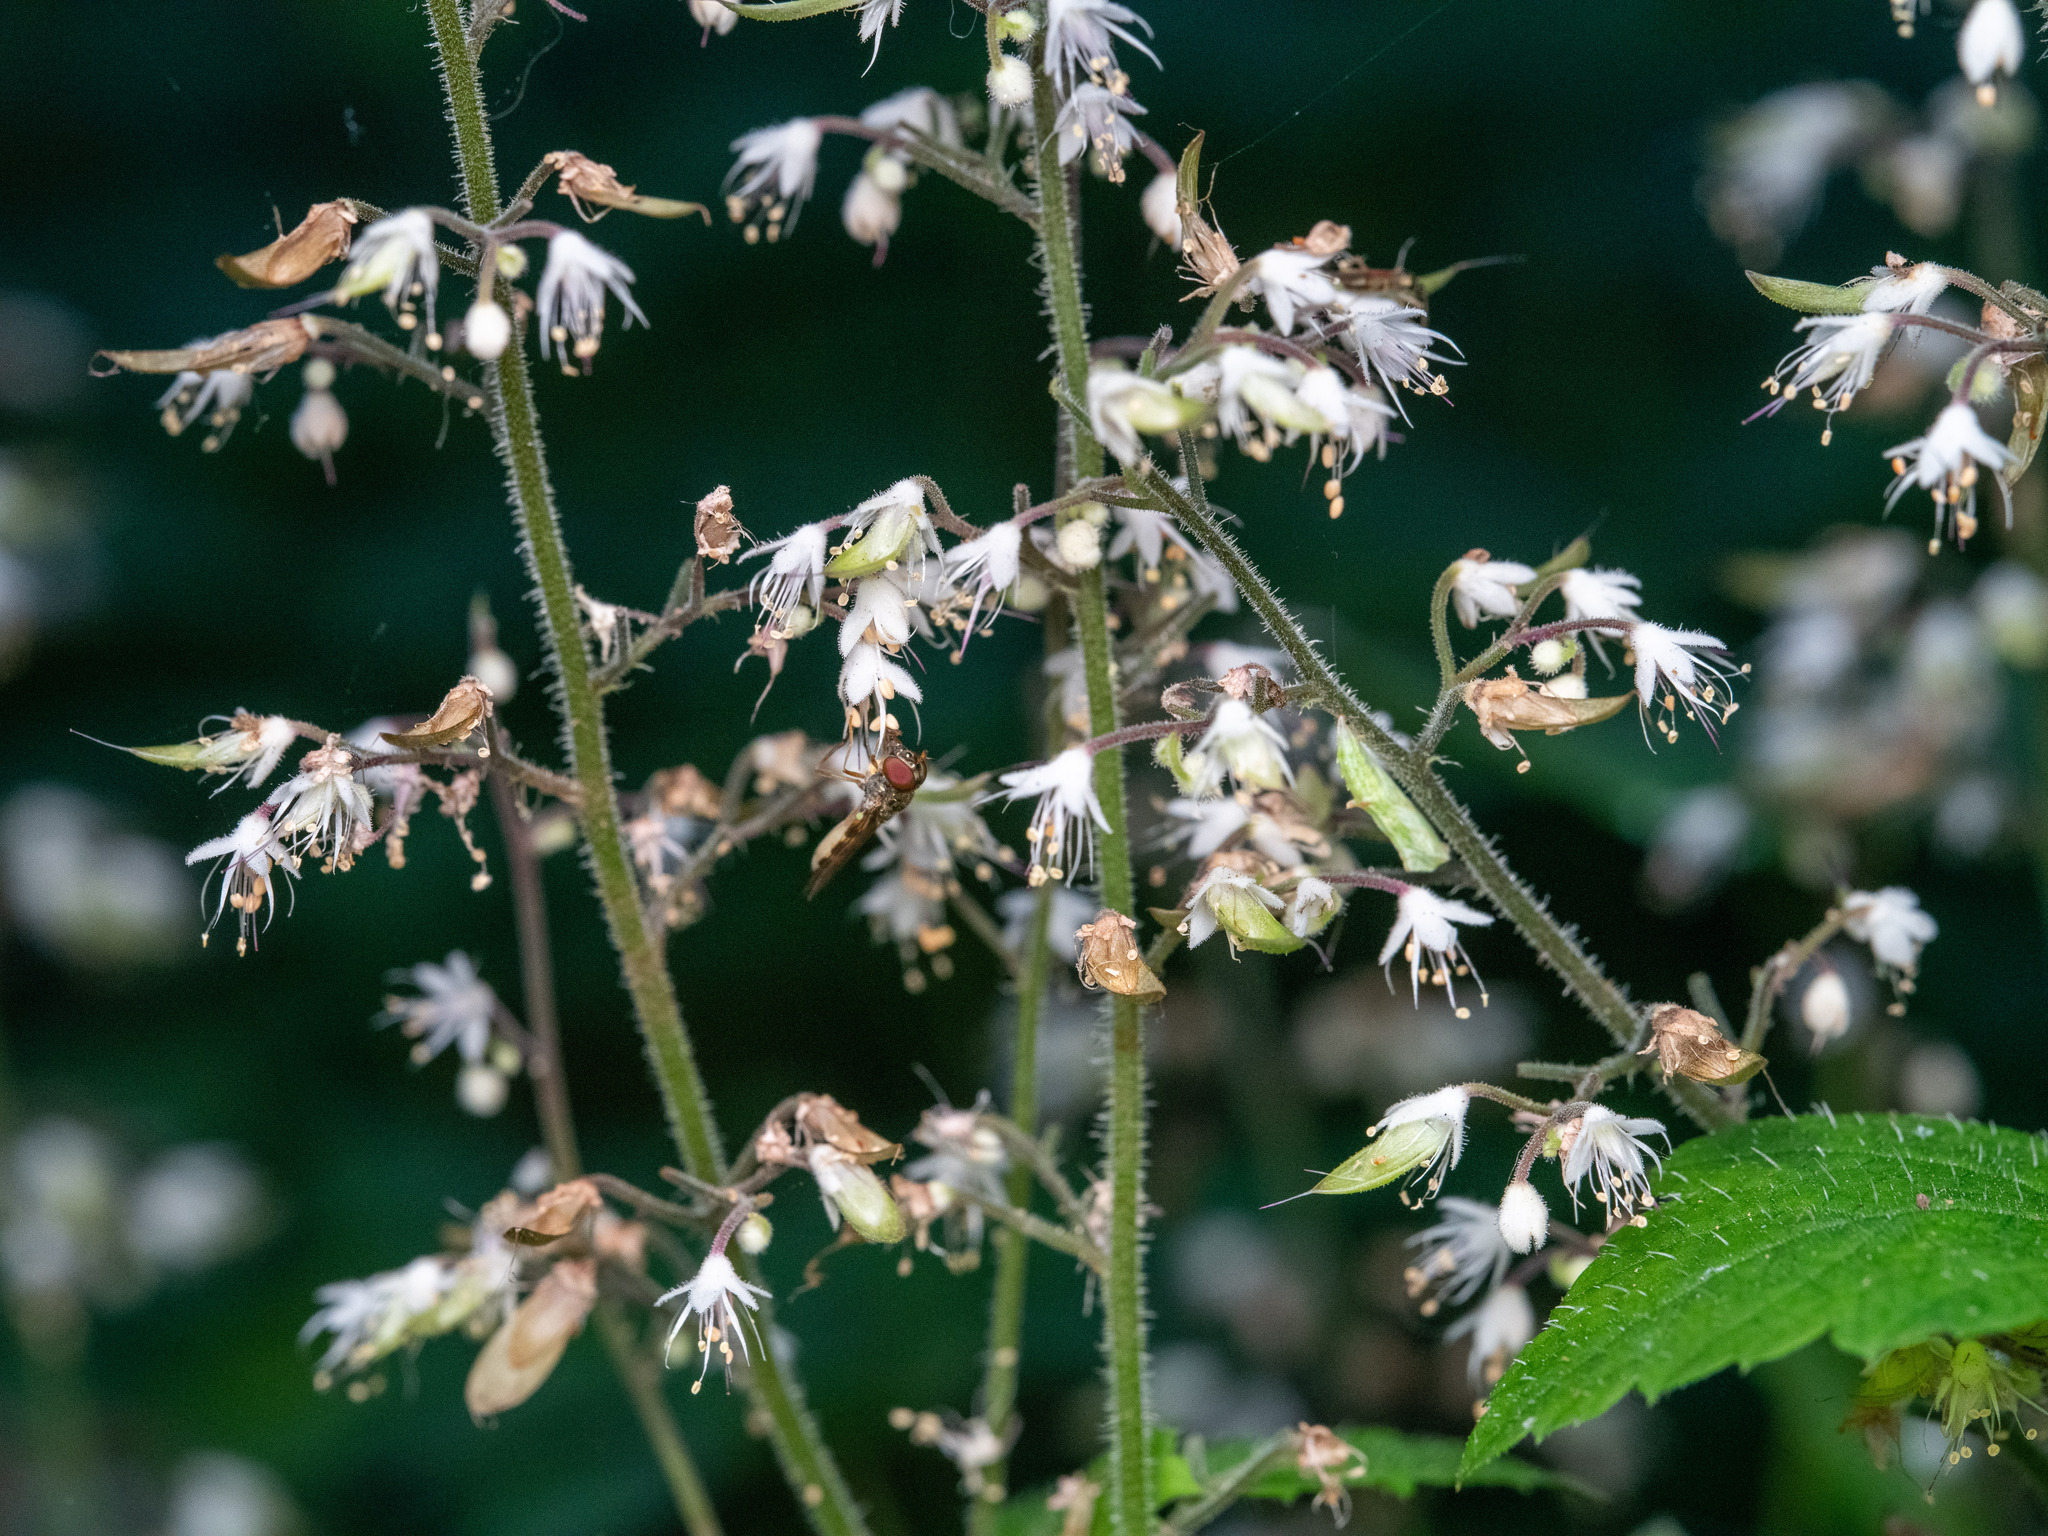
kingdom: Plantae
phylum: Tracheophyta
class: Magnoliopsida
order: Saxifragales
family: Saxifragaceae
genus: Tiarella
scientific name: Tiarella trifoliata
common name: Sugar-scoop
